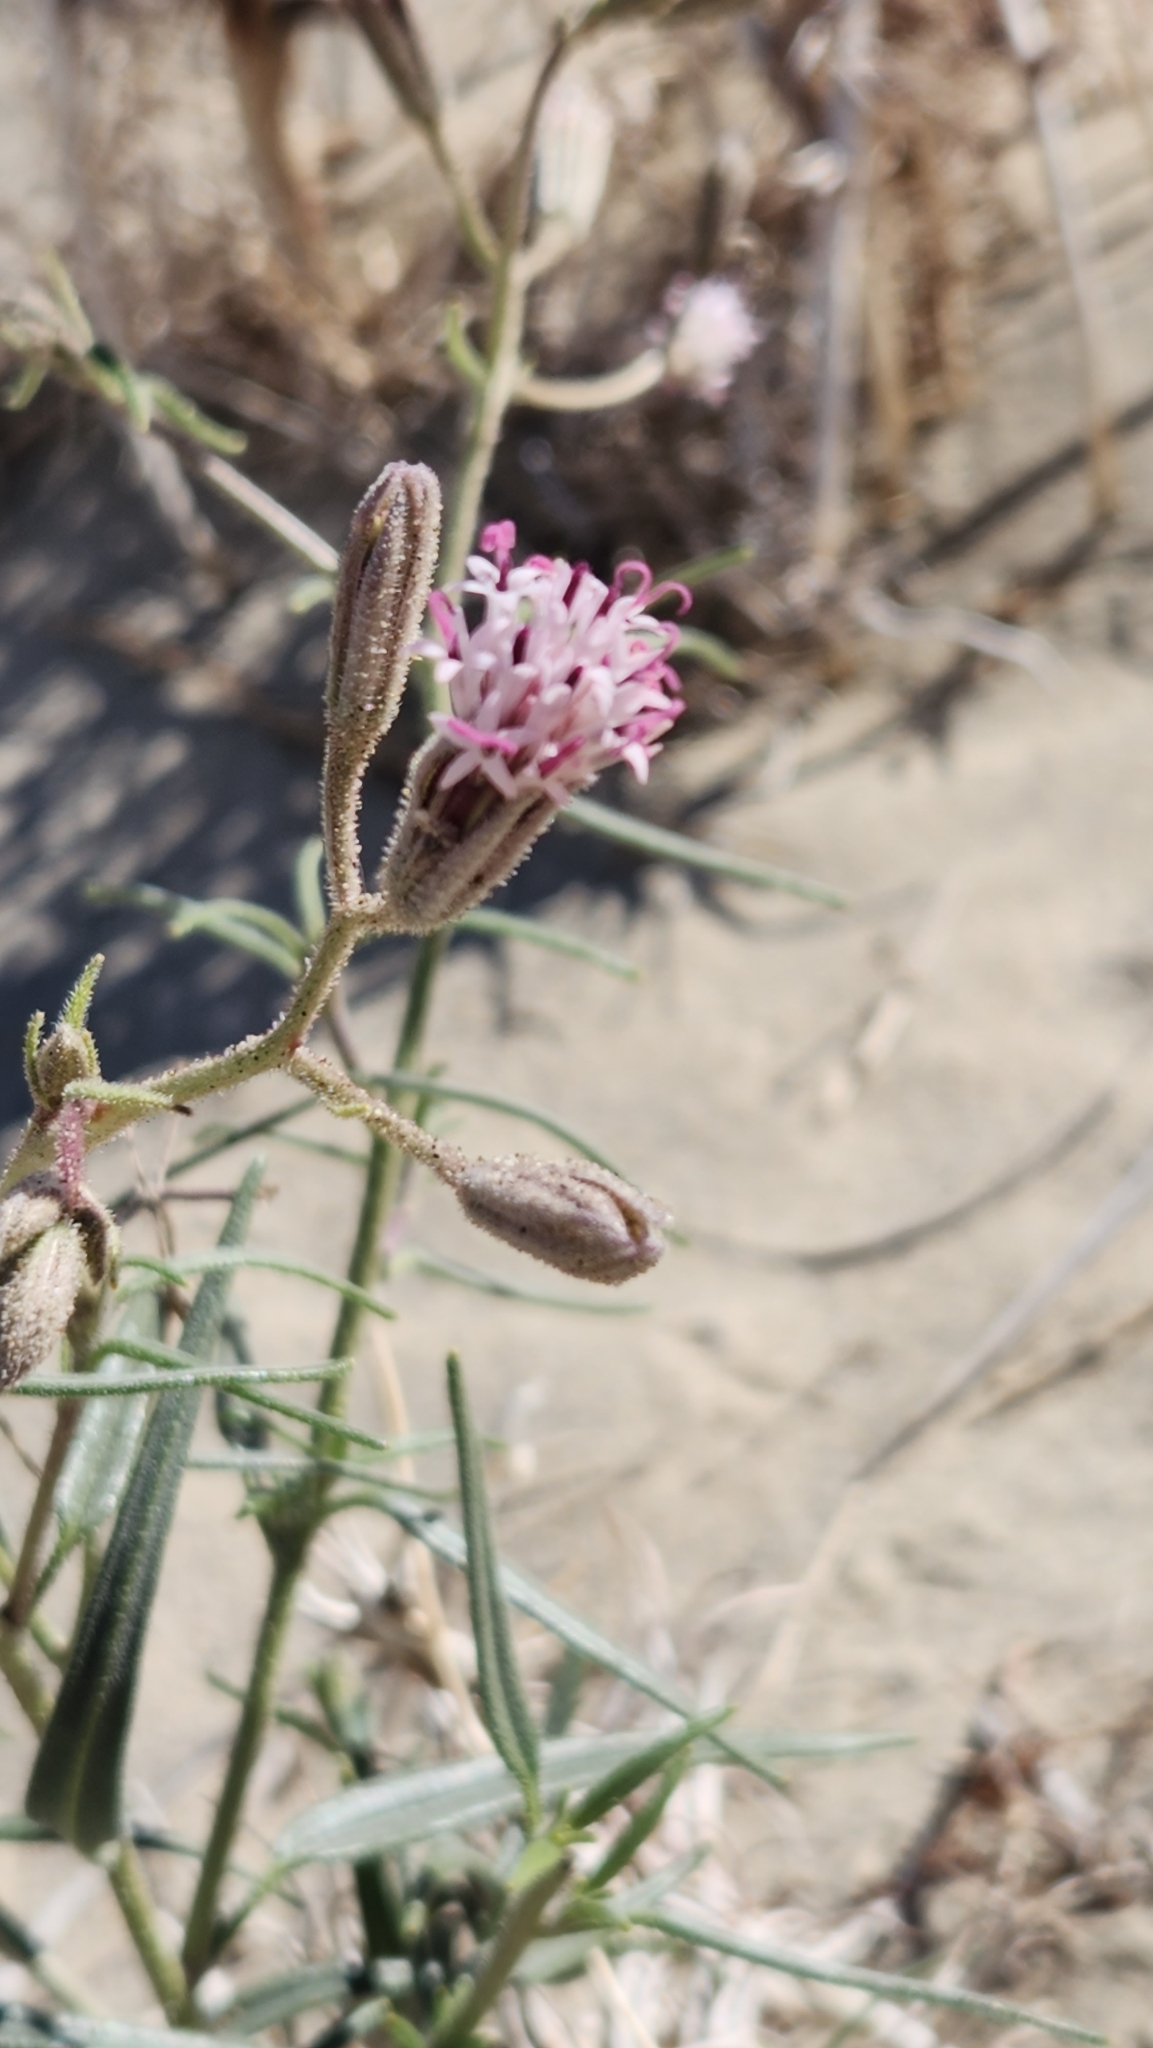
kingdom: Plantae
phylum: Tracheophyta
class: Magnoliopsida
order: Asterales
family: Asteraceae
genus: Palafoxia
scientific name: Palafoxia arida
